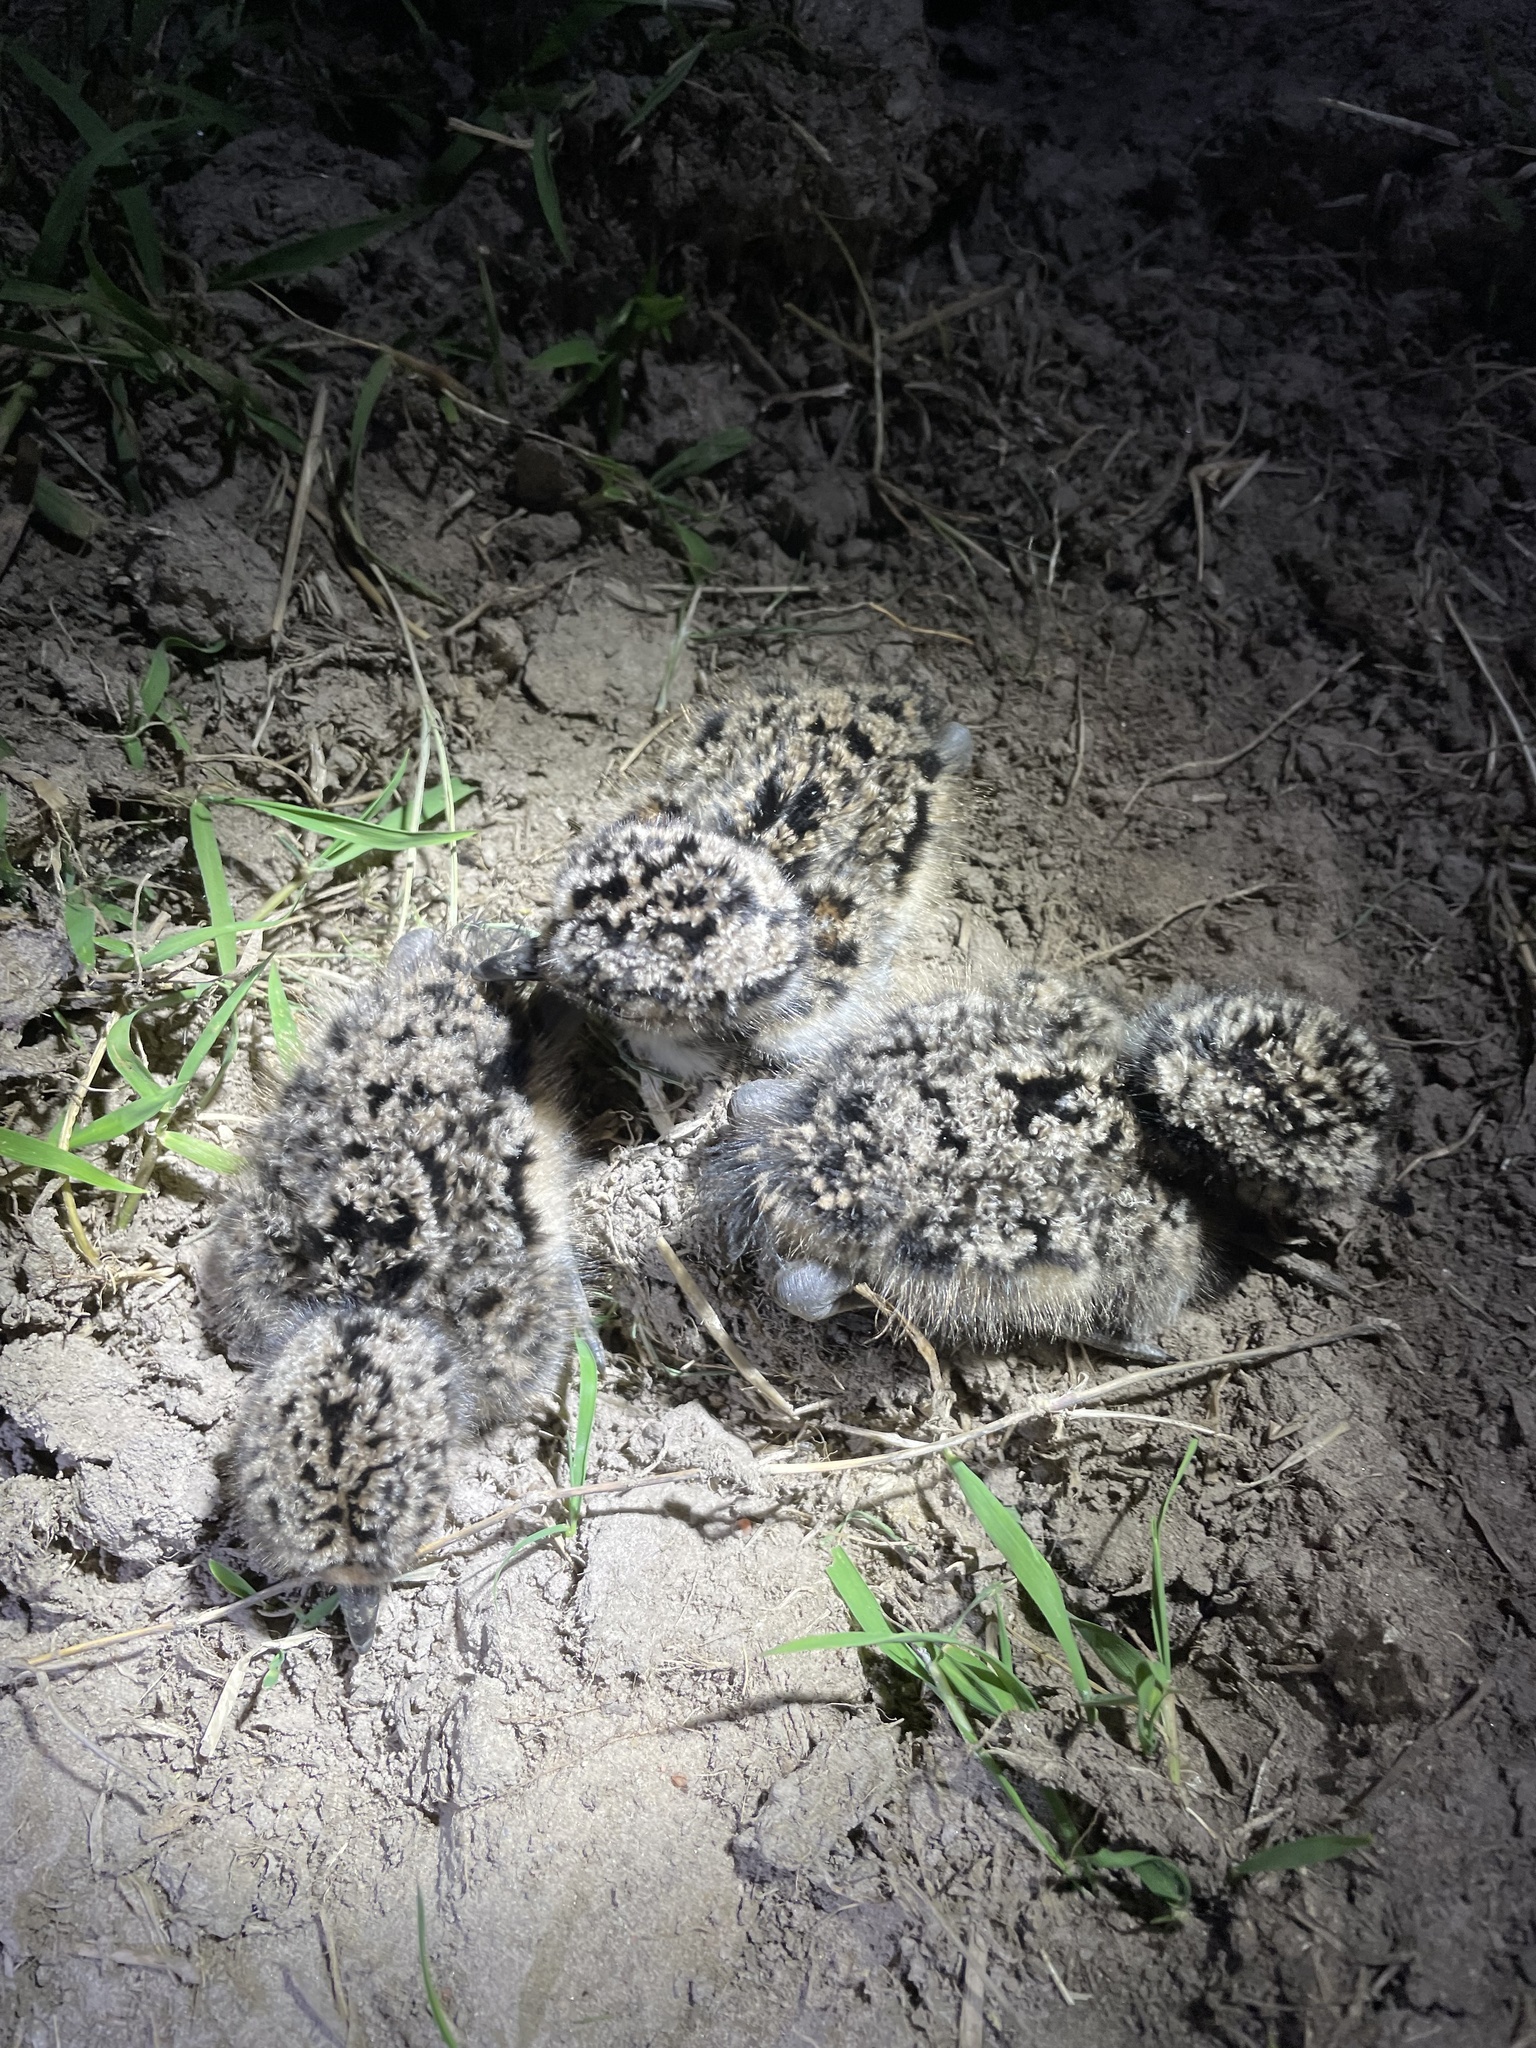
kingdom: Animalia
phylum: Chordata
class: Aves
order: Charadriiformes
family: Charadriidae
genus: Vanellus
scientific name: Vanellus chilensis
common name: Southern lapwing
